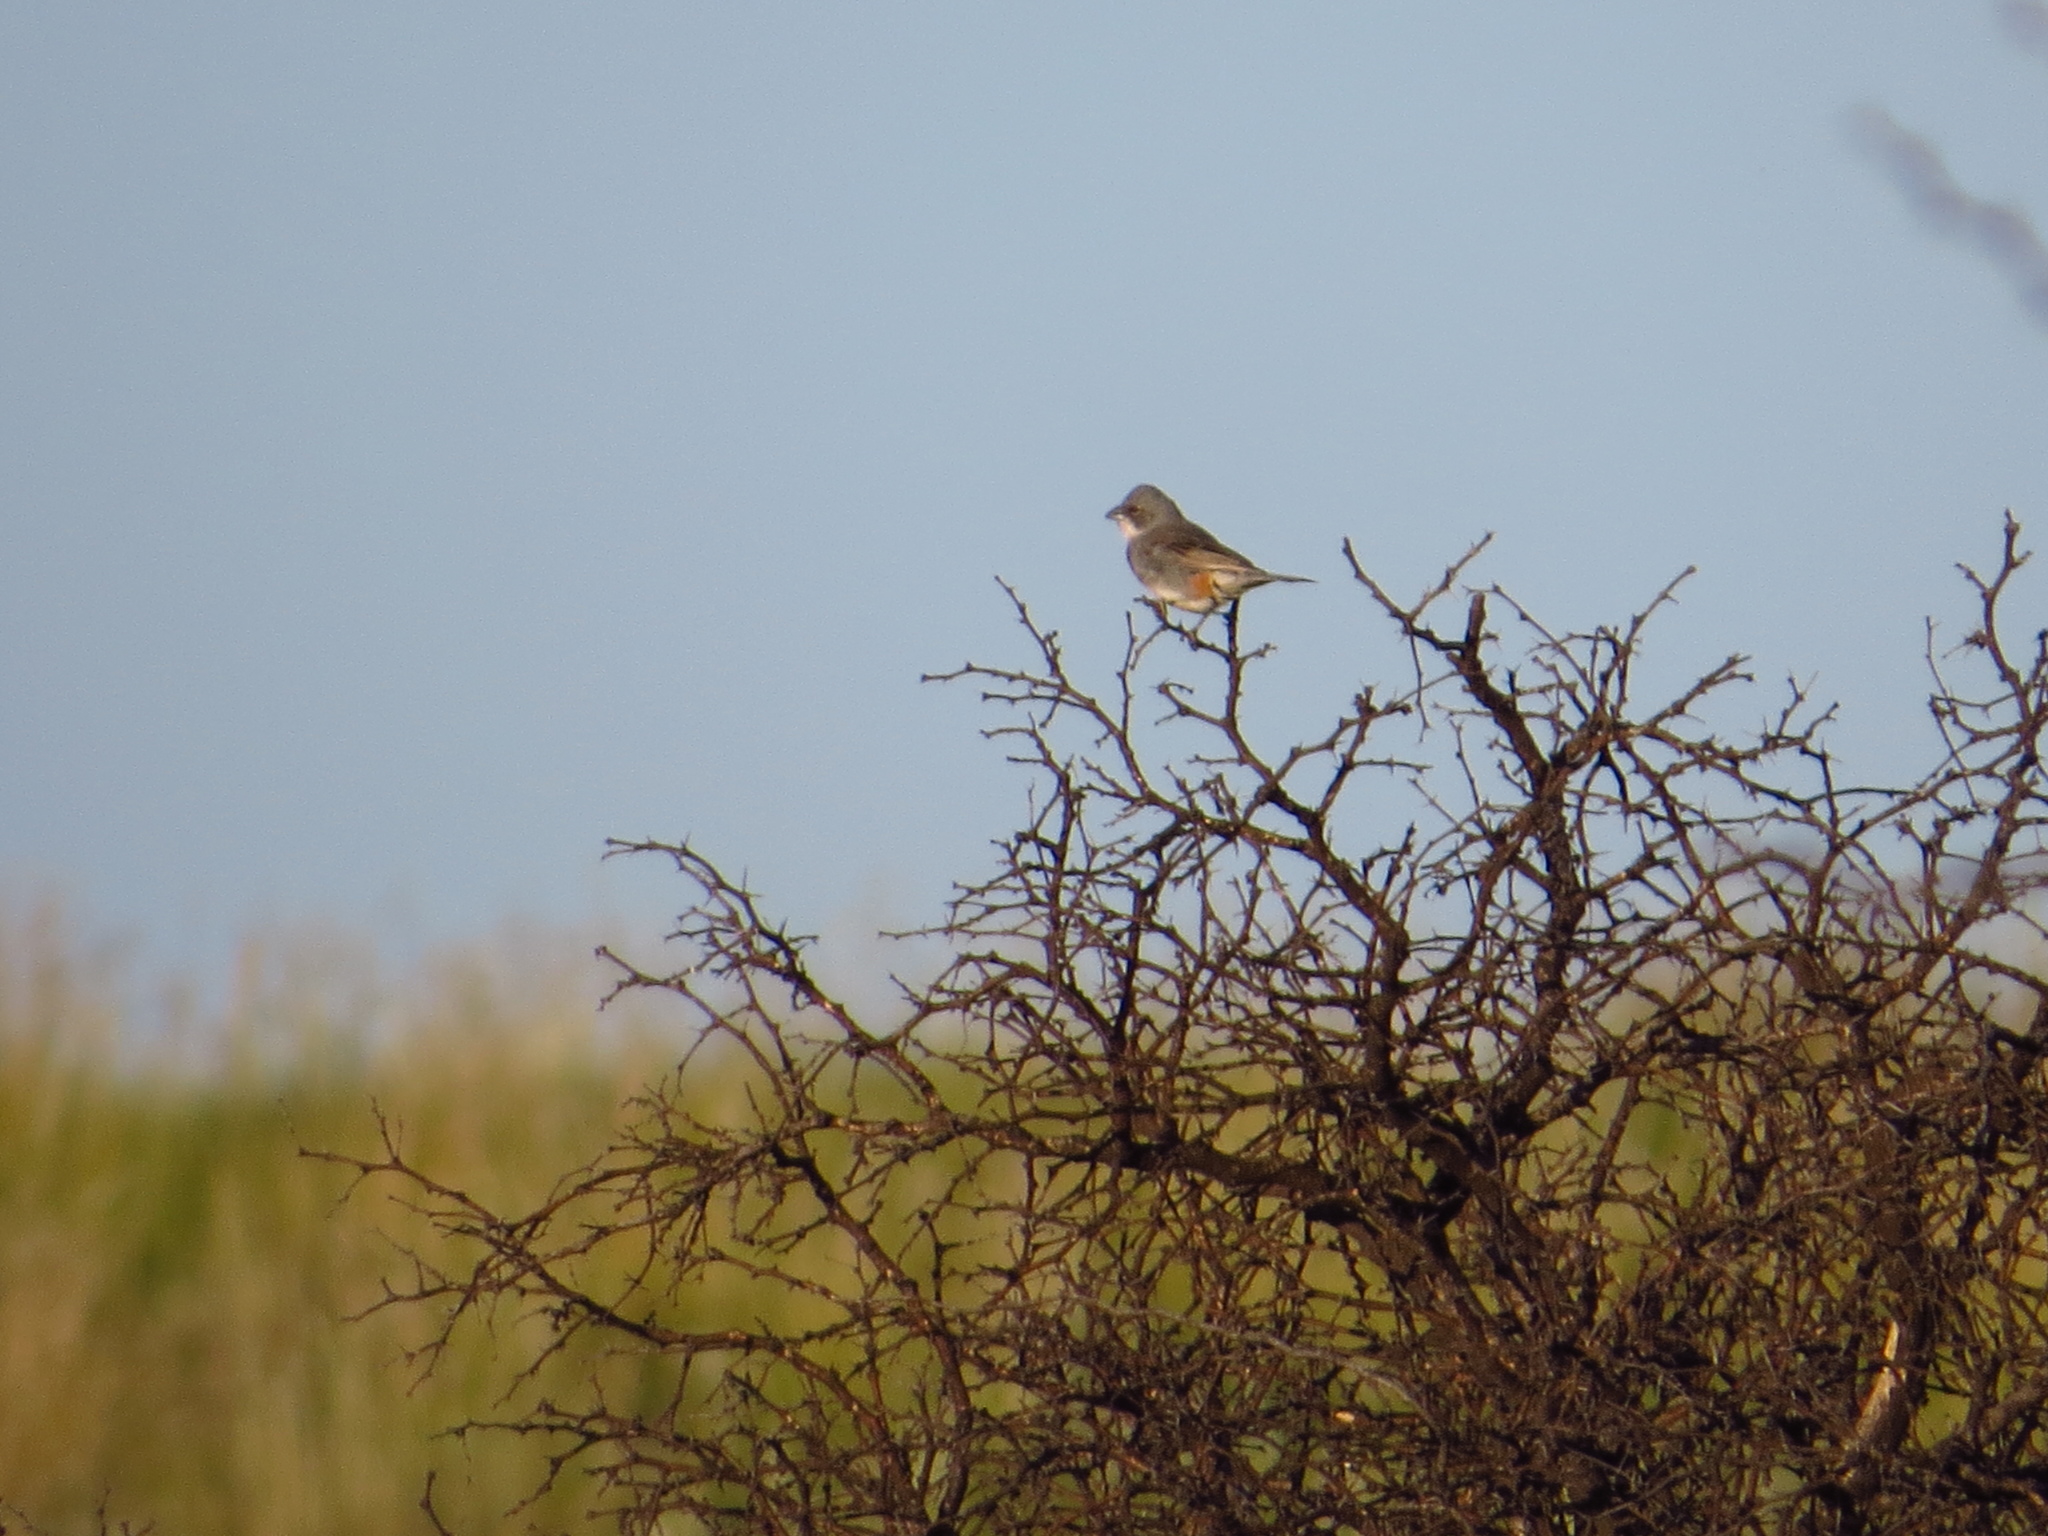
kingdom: Animalia
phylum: Chordata
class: Aves
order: Passeriformes
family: Thraupidae
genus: Diuca
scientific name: Diuca diuca
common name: Common diuca finch
